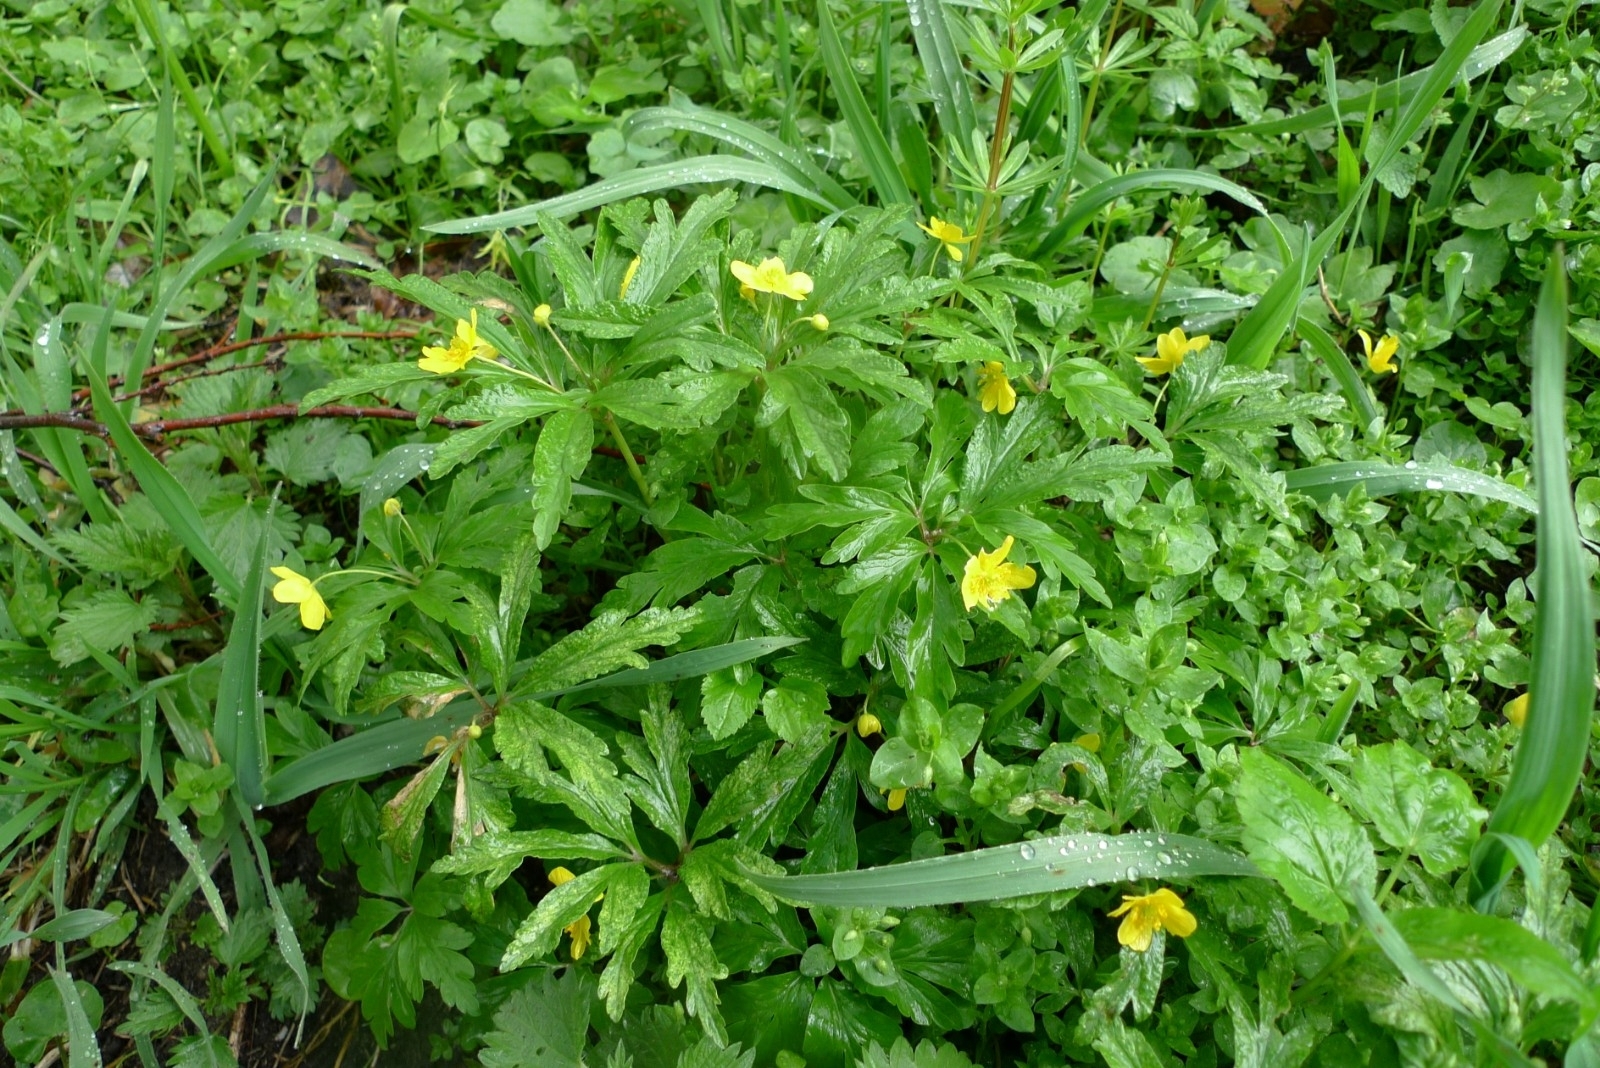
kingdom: Plantae
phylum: Tracheophyta
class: Magnoliopsida
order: Ranunculales
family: Ranunculaceae
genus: Anemone
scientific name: Anemone ranunculoides
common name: Yellow anemone
